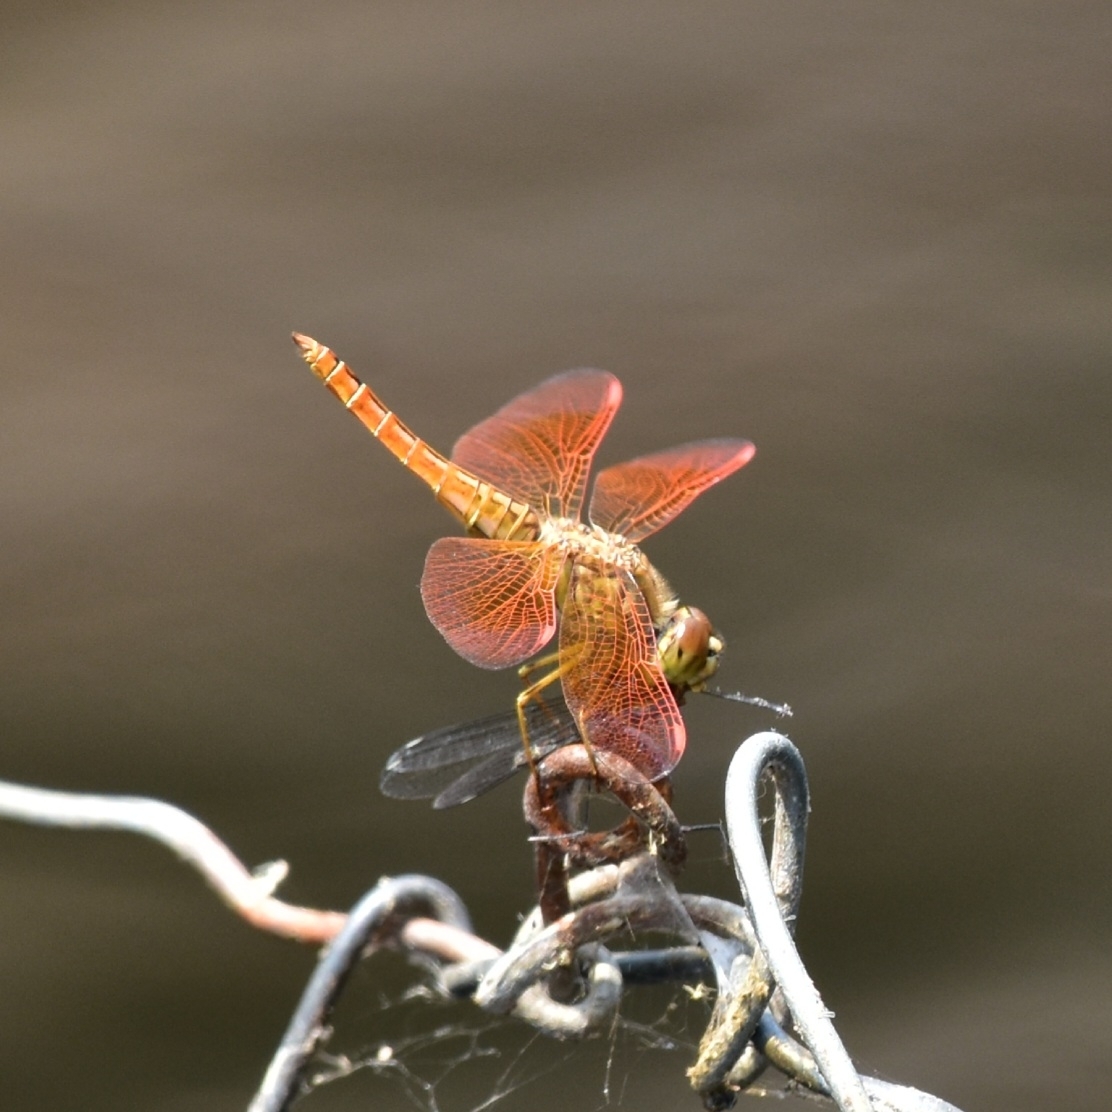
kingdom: Animalia
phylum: Arthropoda
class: Insecta
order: Odonata
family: Libellulidae
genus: Brachythemis
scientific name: Brachythemis contaminata
